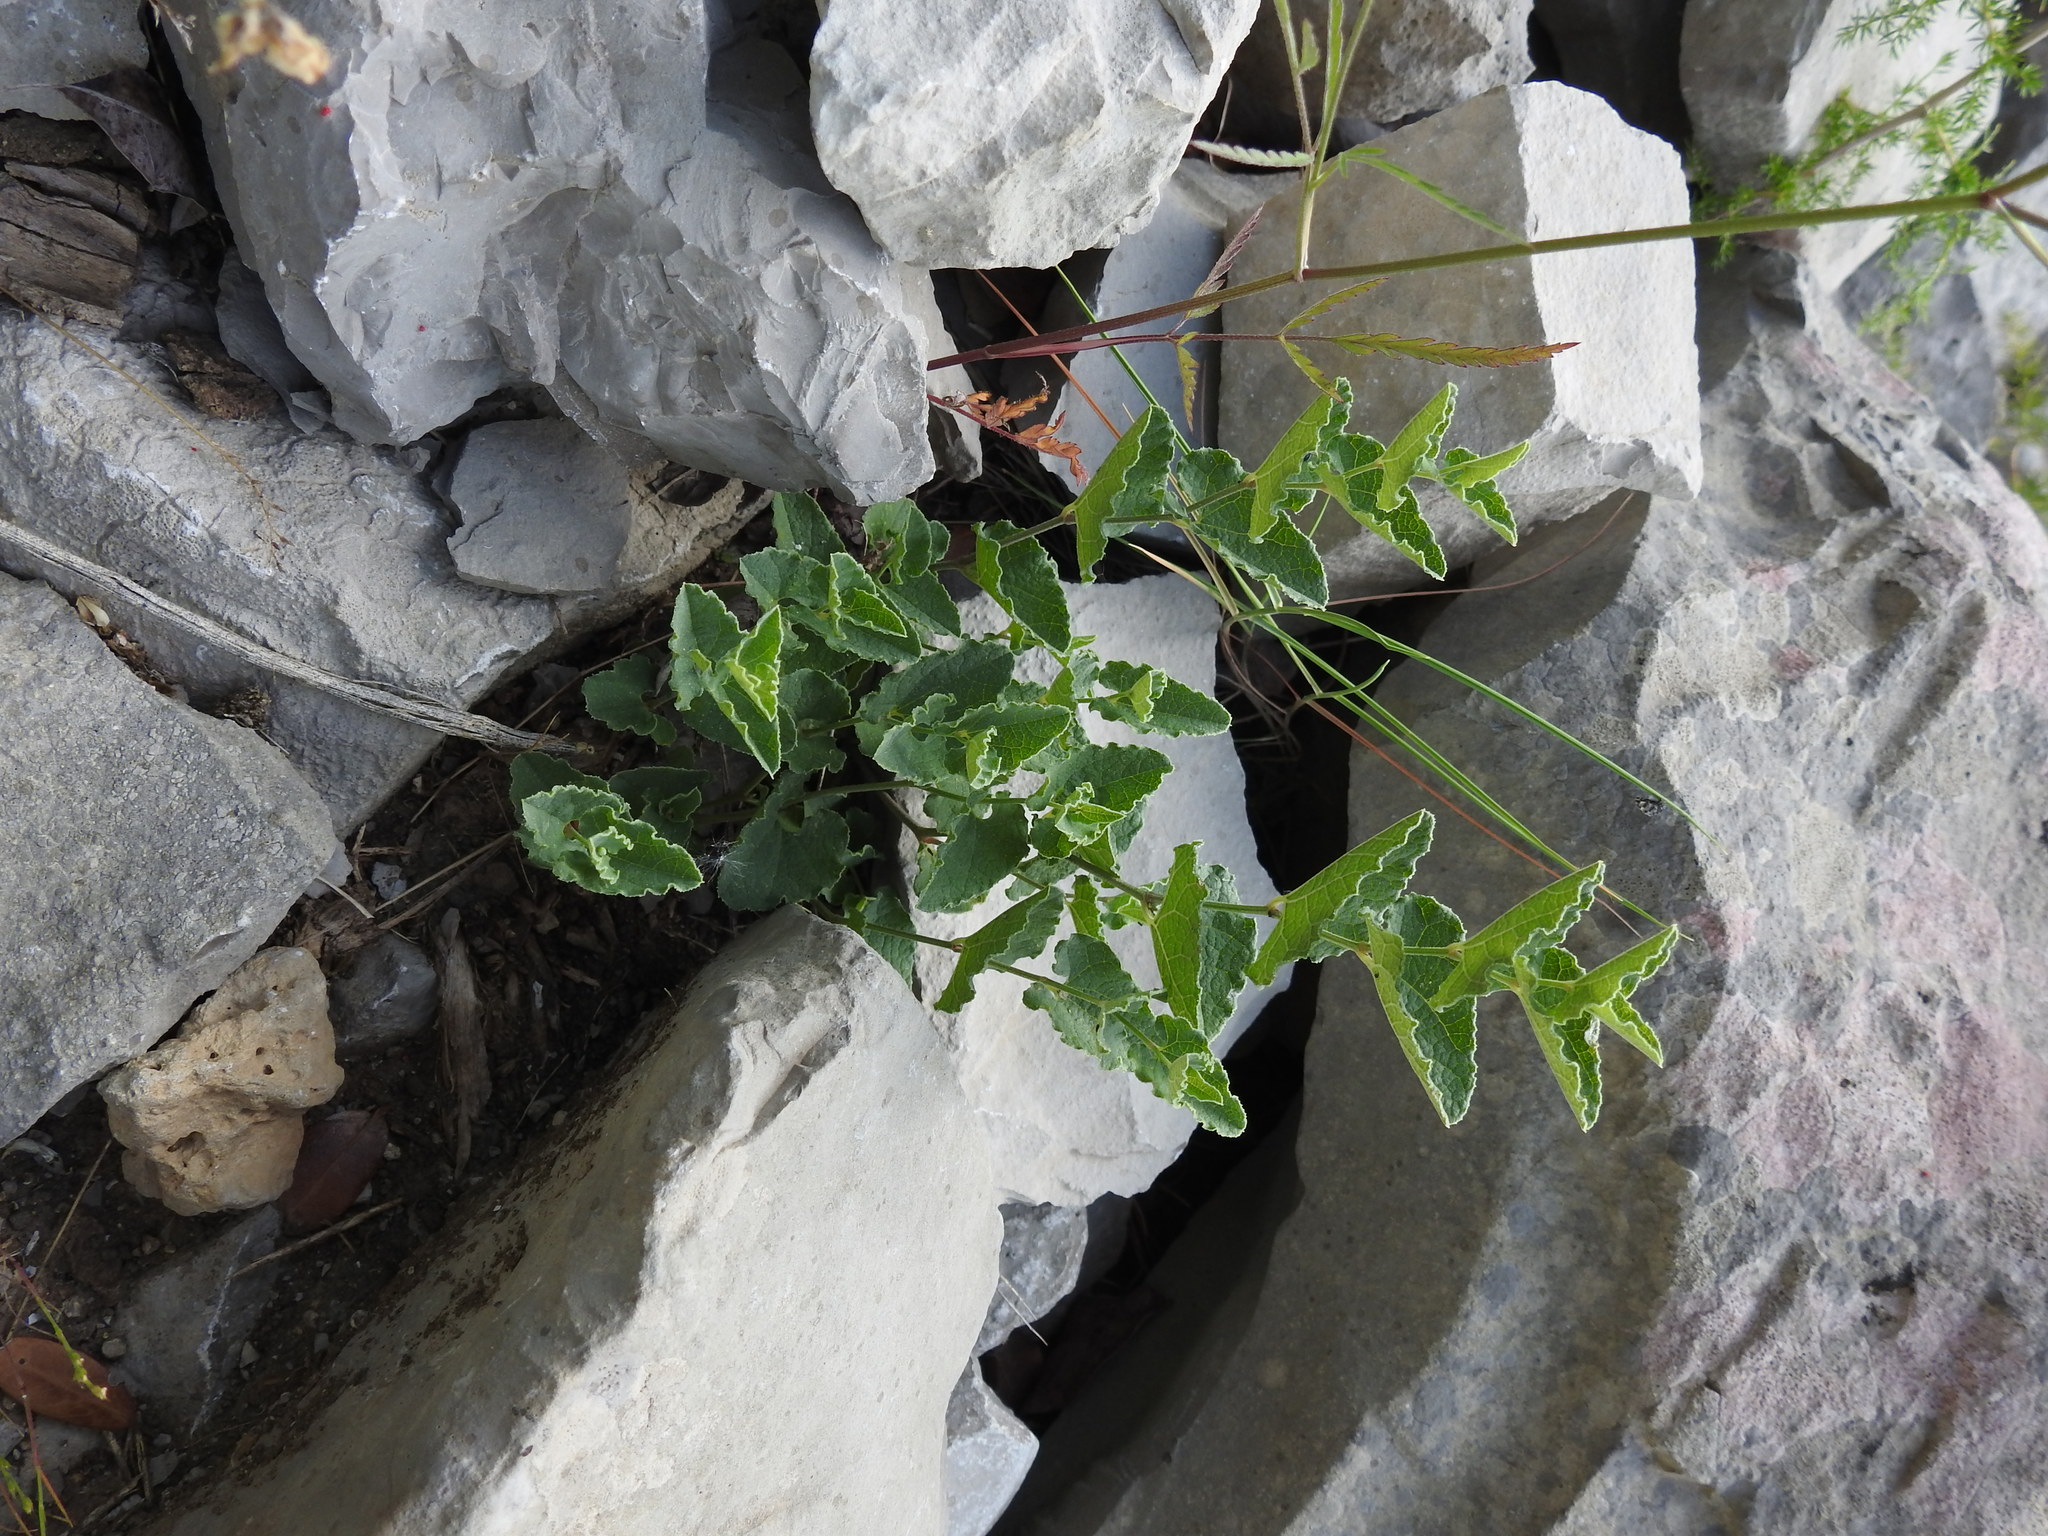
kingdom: Plantae
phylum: Tracheophyta
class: Magnoliopsida
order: Piperales
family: Aristolochiaceae
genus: Aristolochia
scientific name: Aristolochia pistolochia
